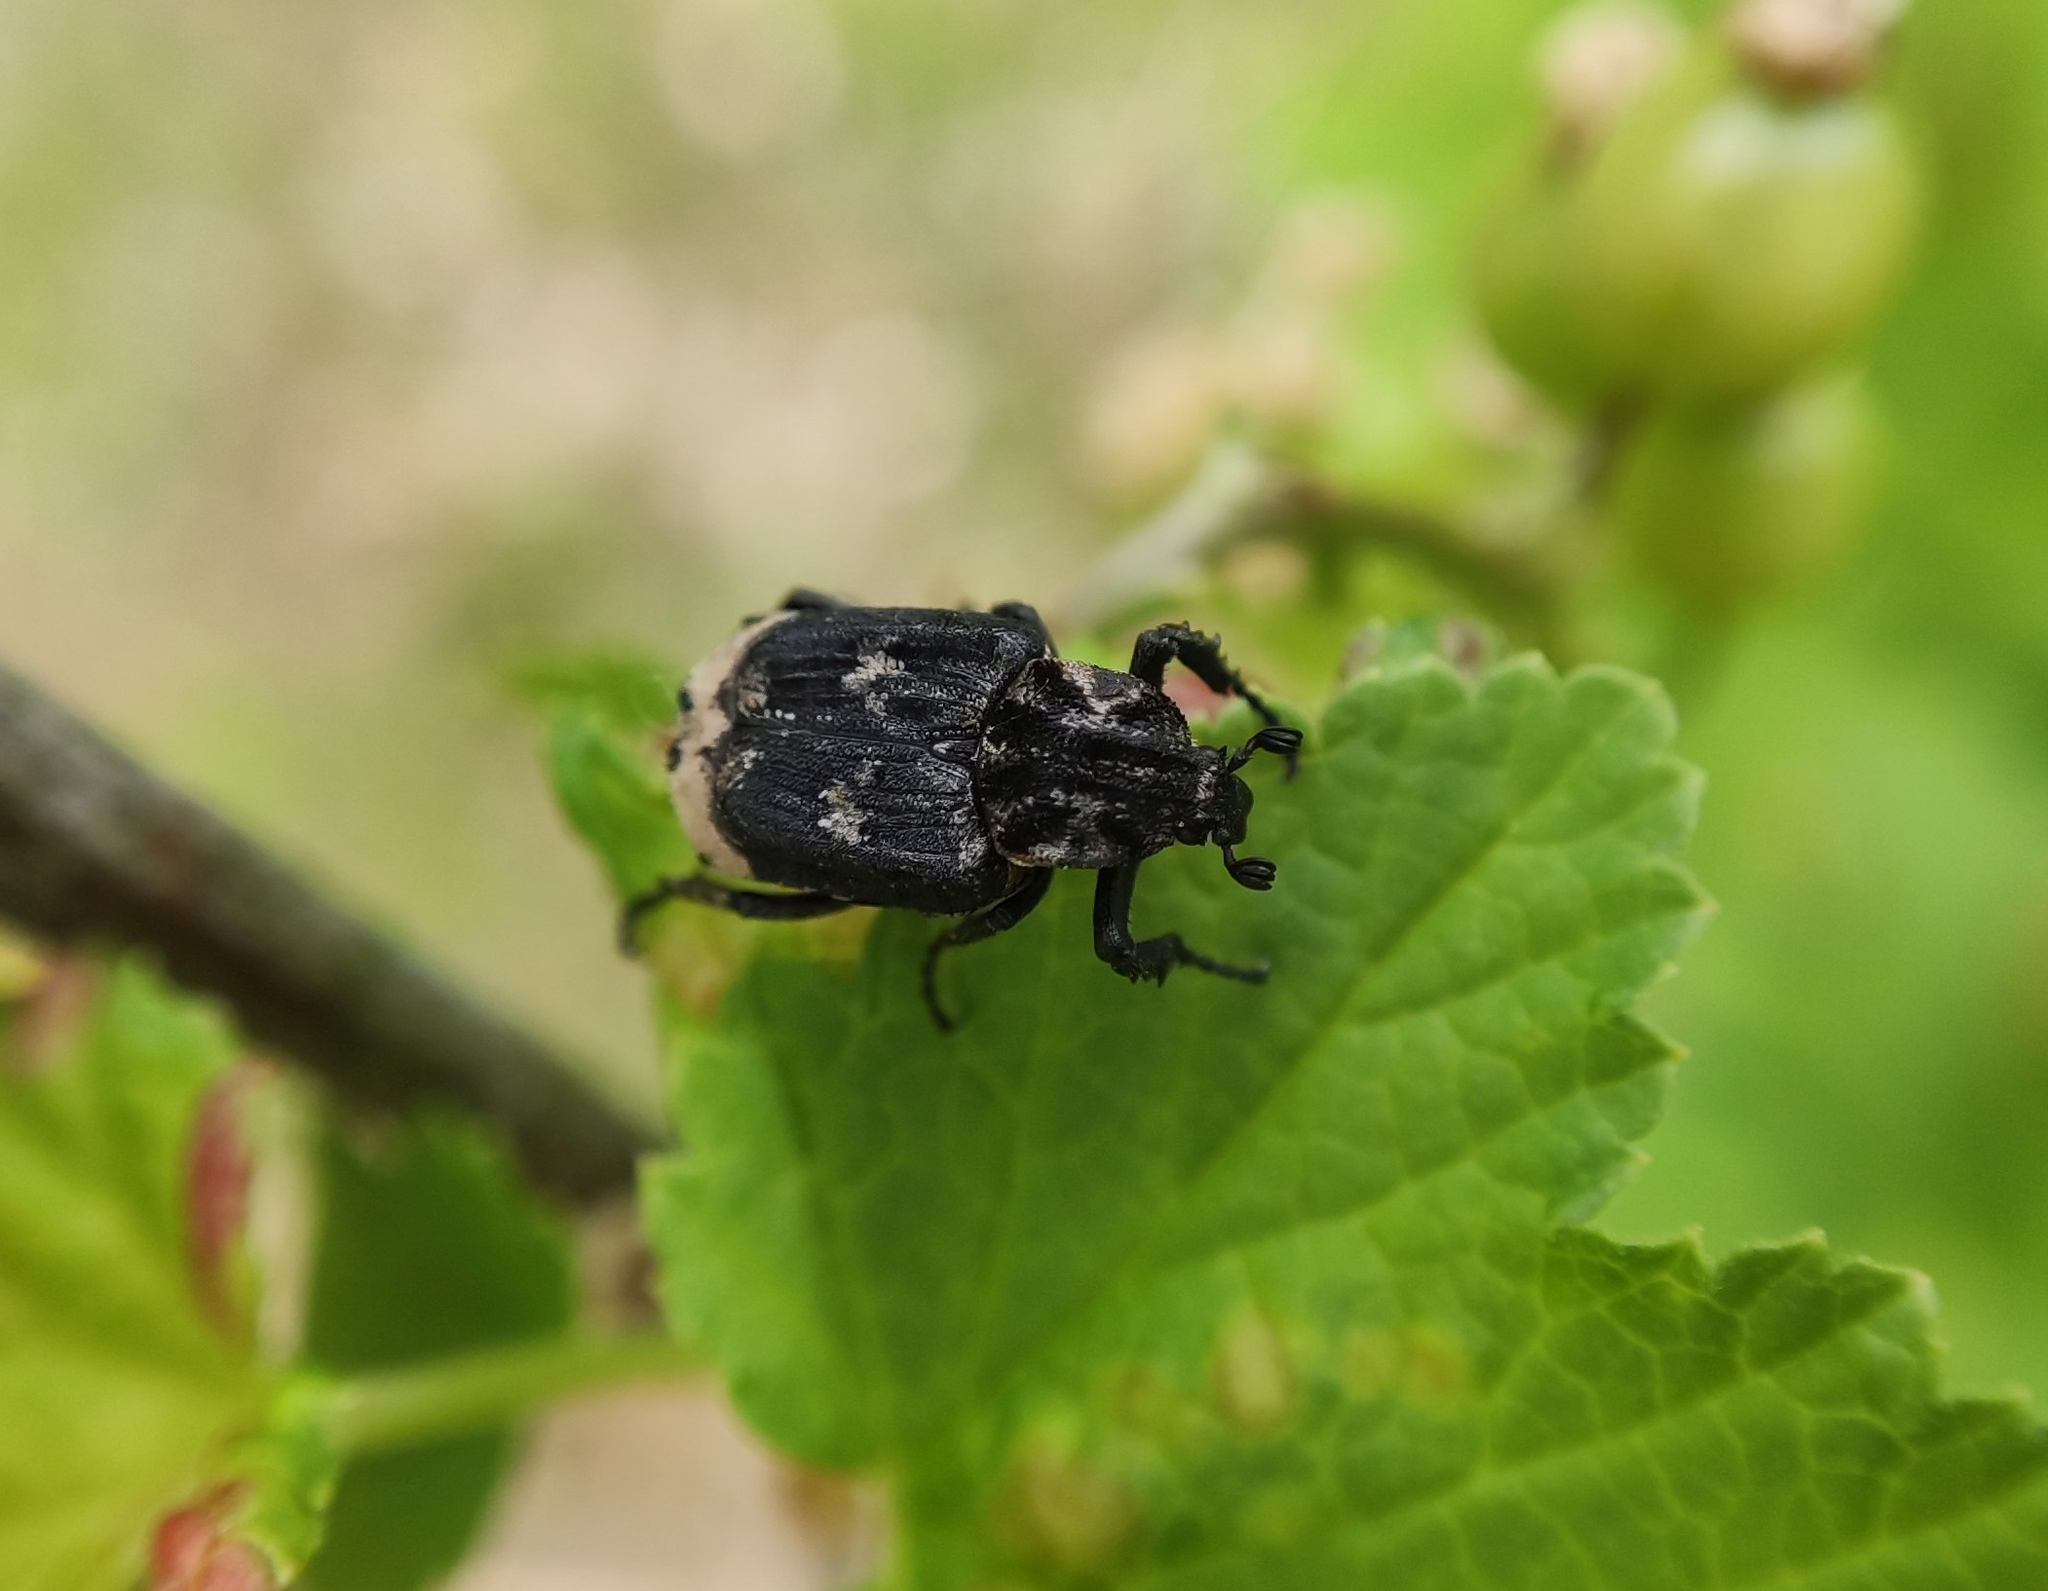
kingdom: Animalia
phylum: Arthropoda
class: Insecta
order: Coleoptera
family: Scarabaeidae
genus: Valgus
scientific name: Valgus hemipterus
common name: Bug flower chafer
